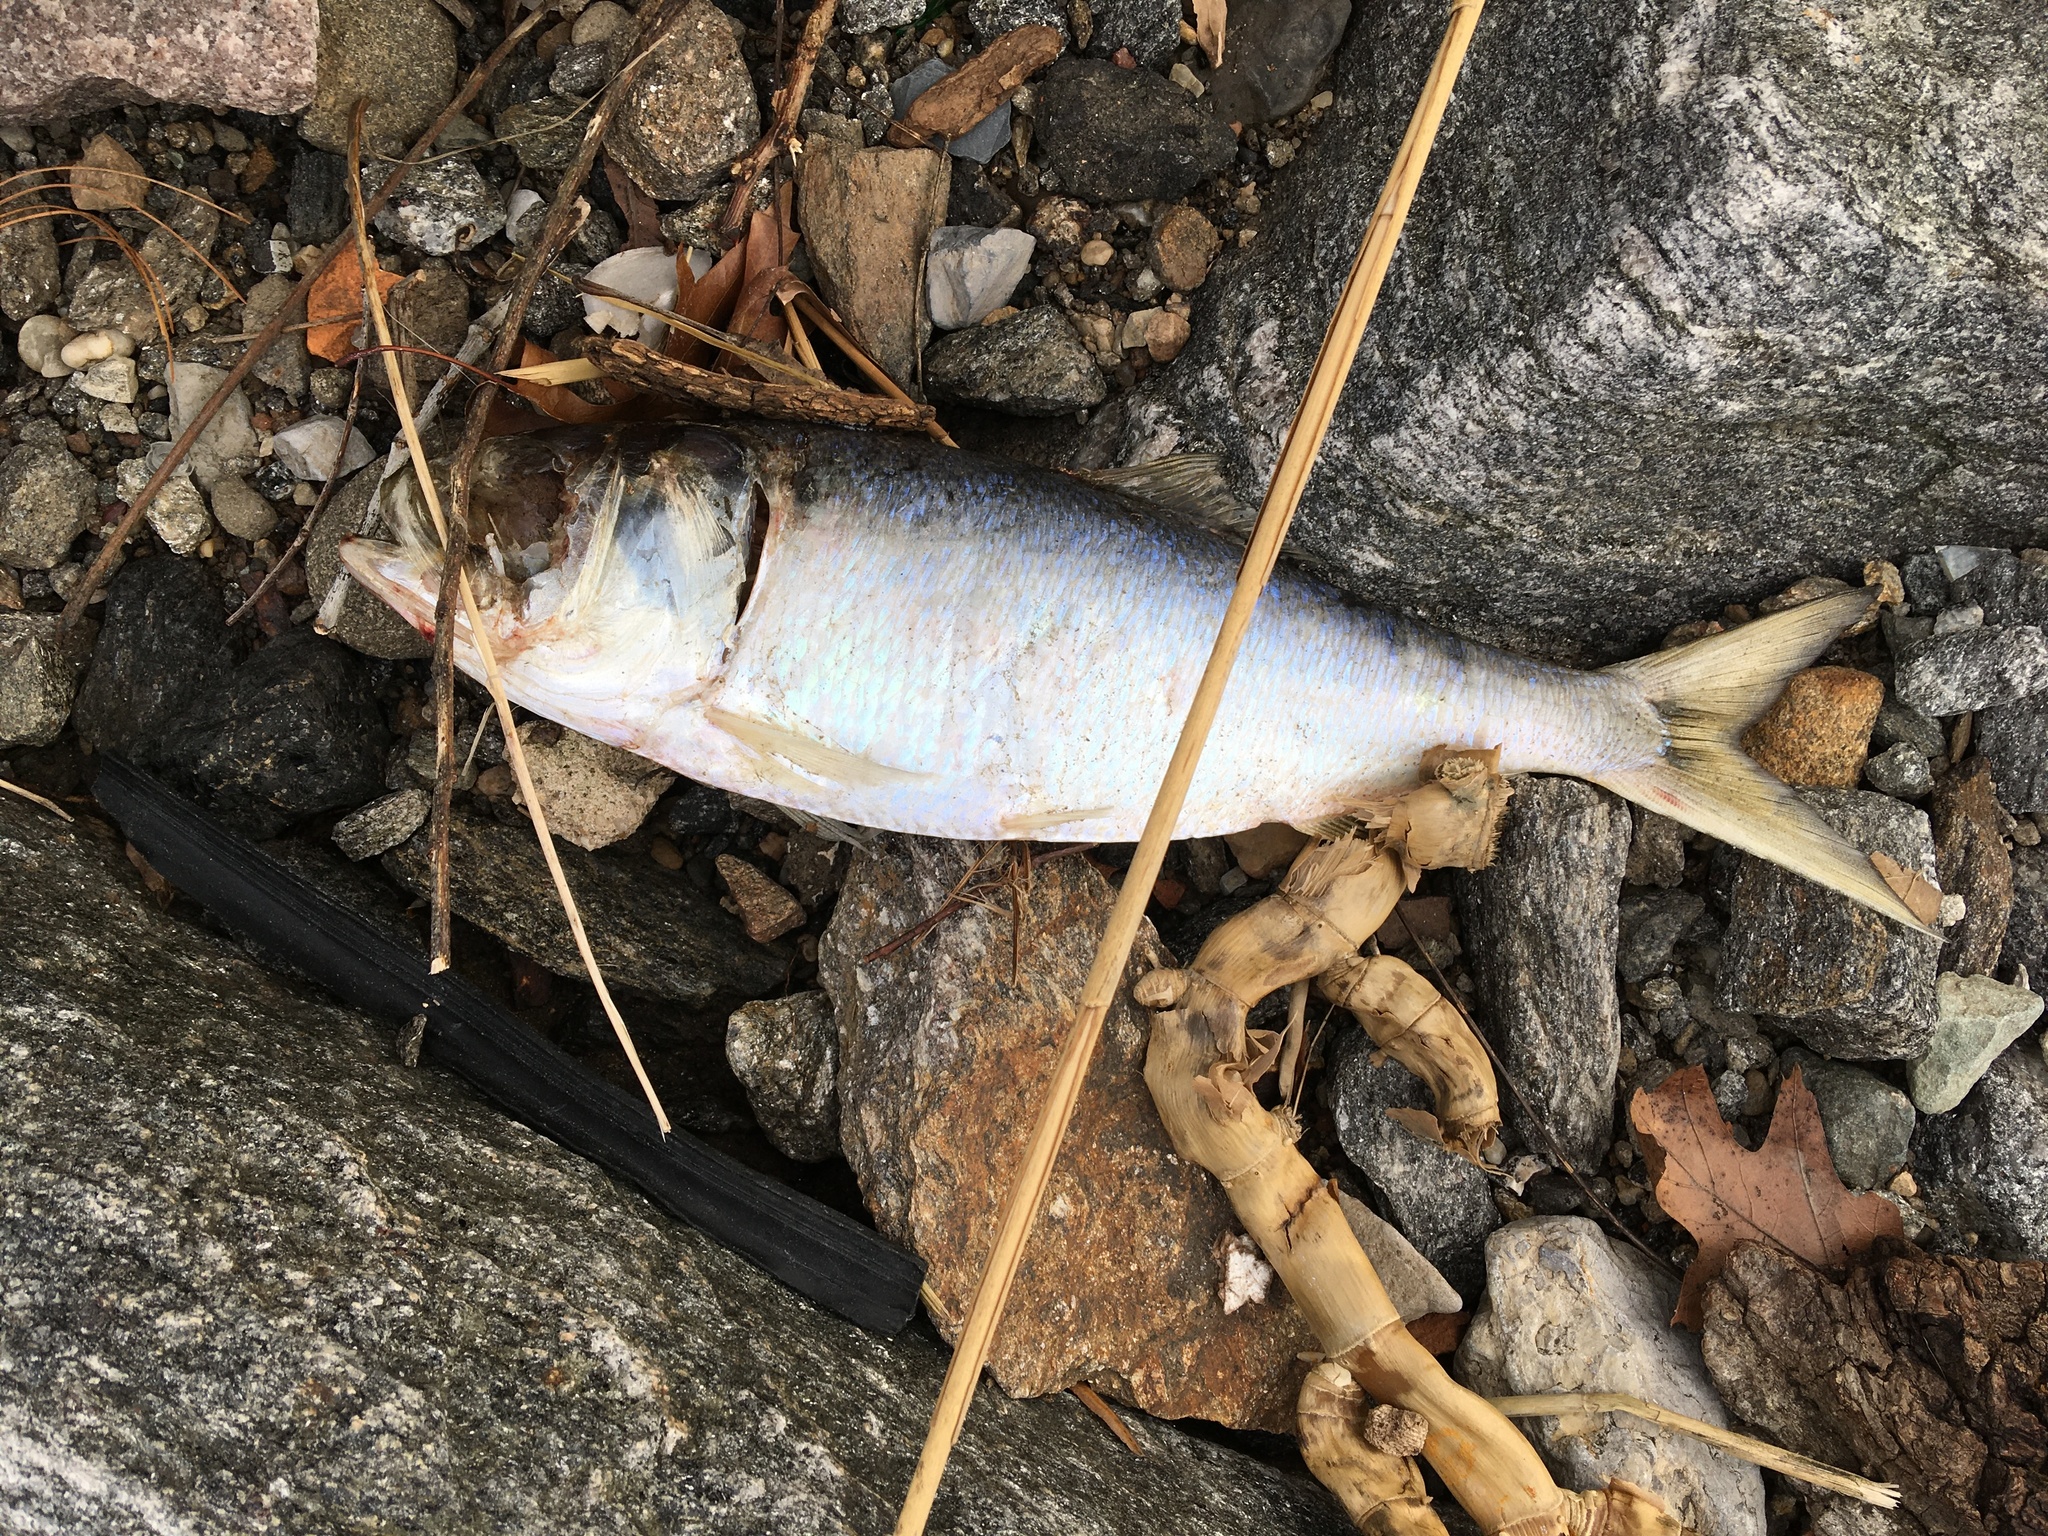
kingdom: Animalia
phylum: Chordata
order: Clupeiformes
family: Clupeidae
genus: Brevoortia
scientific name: Brevoortia tyrannus
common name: Atlantic menhaden
